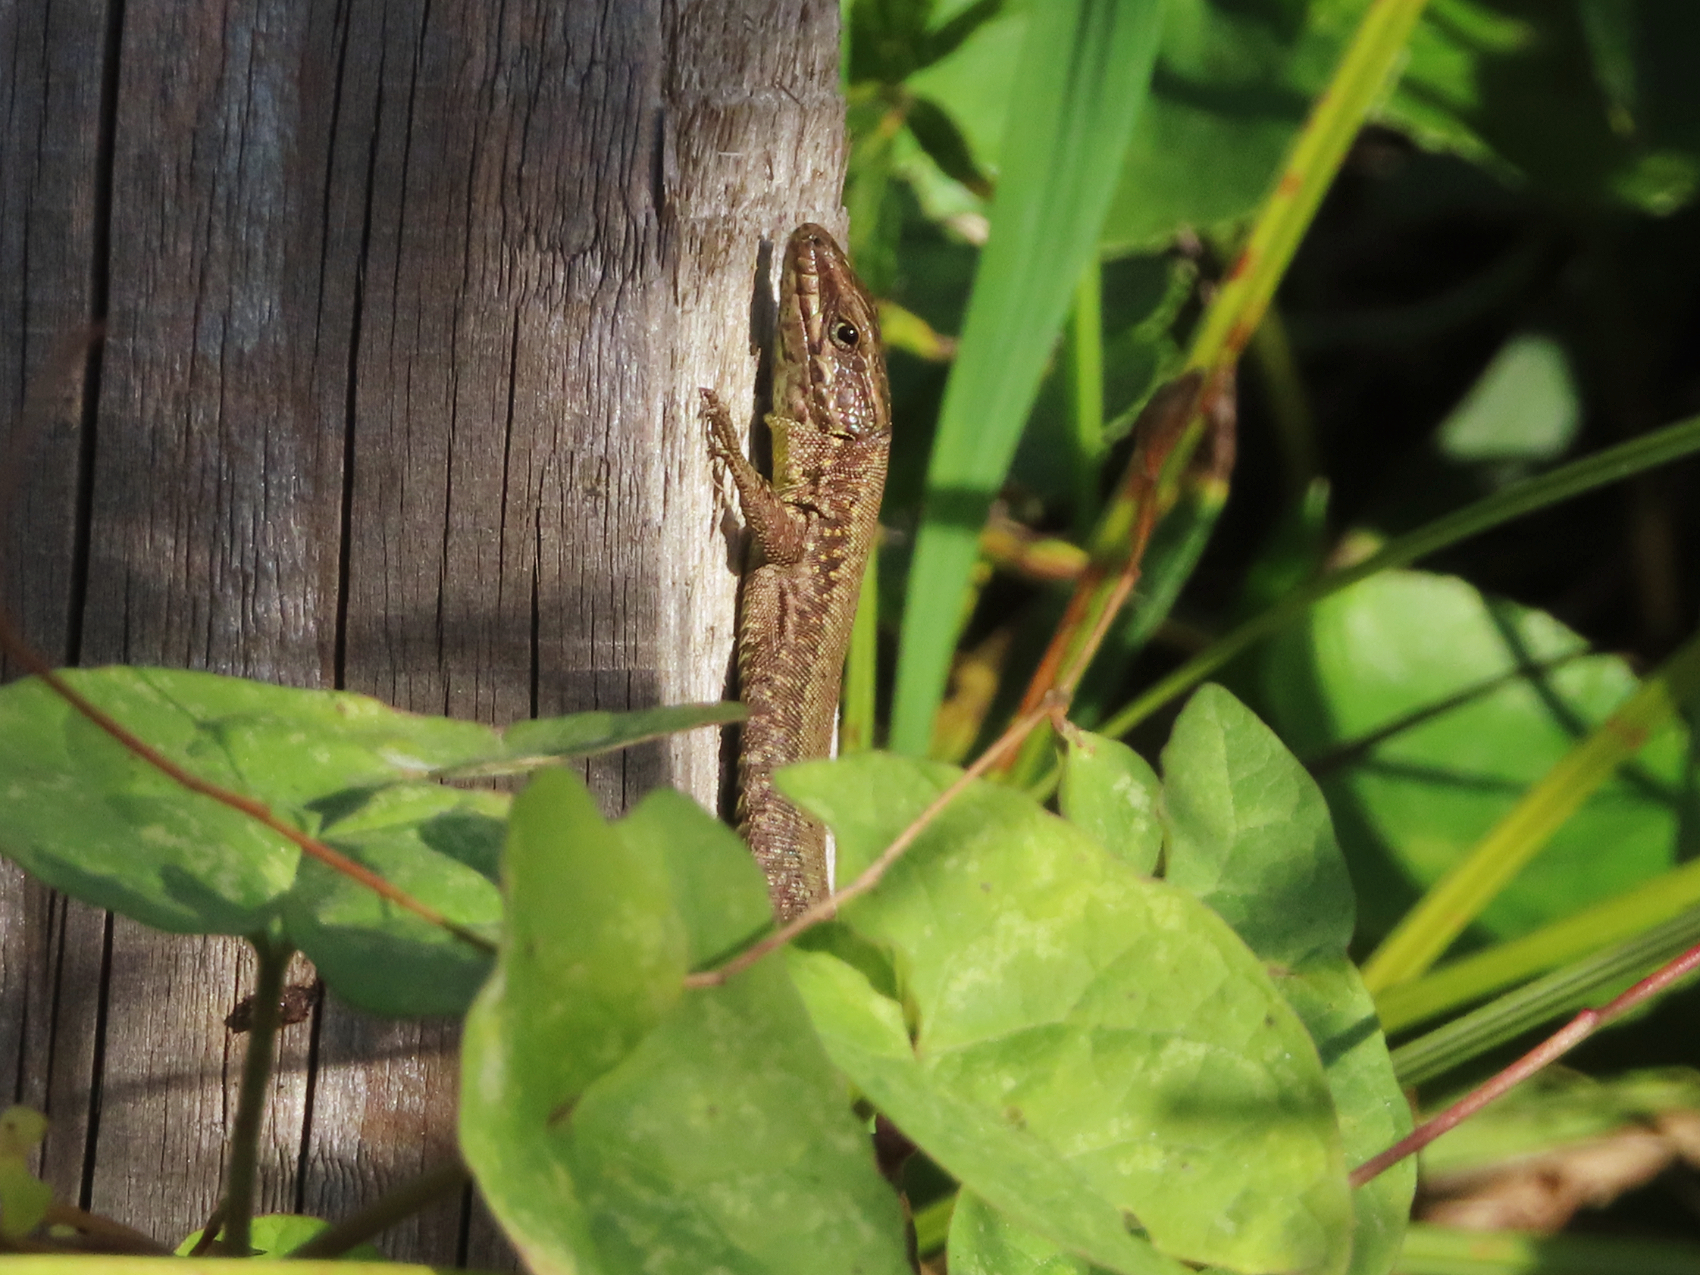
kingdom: Animalia
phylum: Chordata
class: Squamata
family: Lacertidae
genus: Podarcis
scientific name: Podarcis muralis
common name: Common wall lizard
